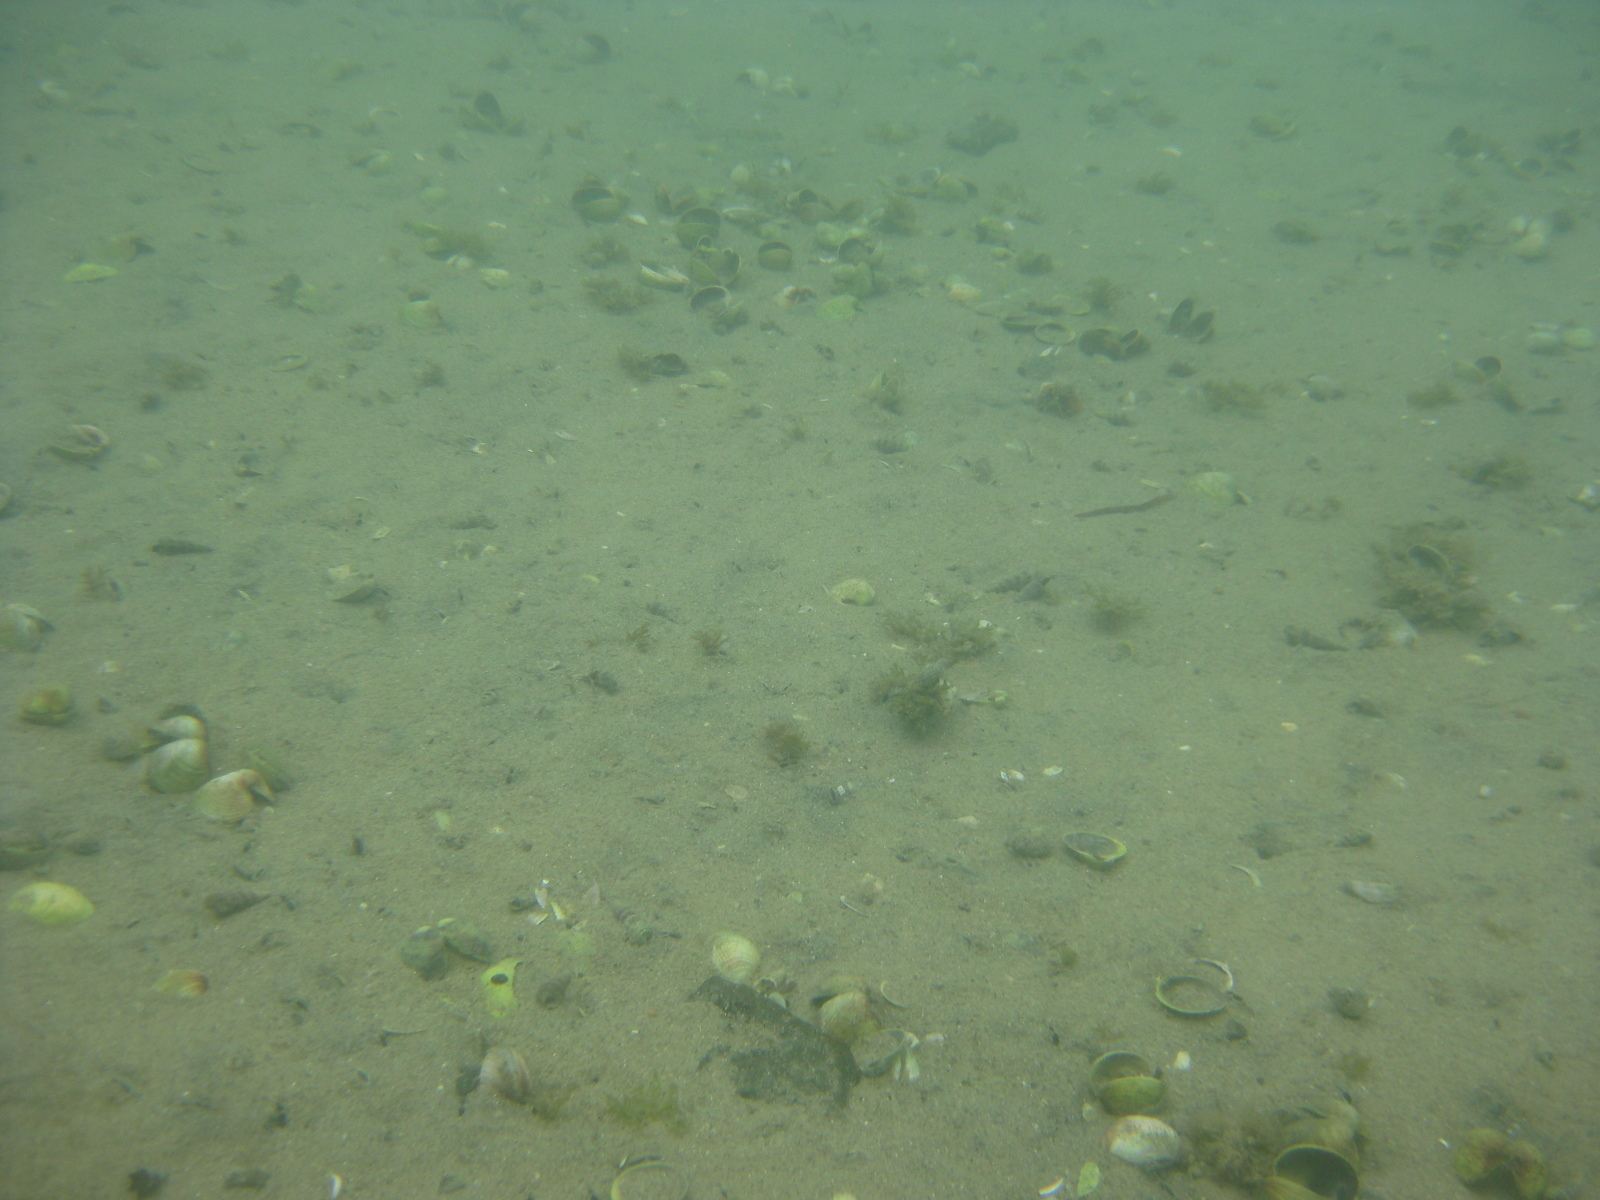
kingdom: Animalia
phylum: Mollusca
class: Bivalvia
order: Venerida
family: Veneridae
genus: Austrovenus
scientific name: Austrovenus stutchburyi
